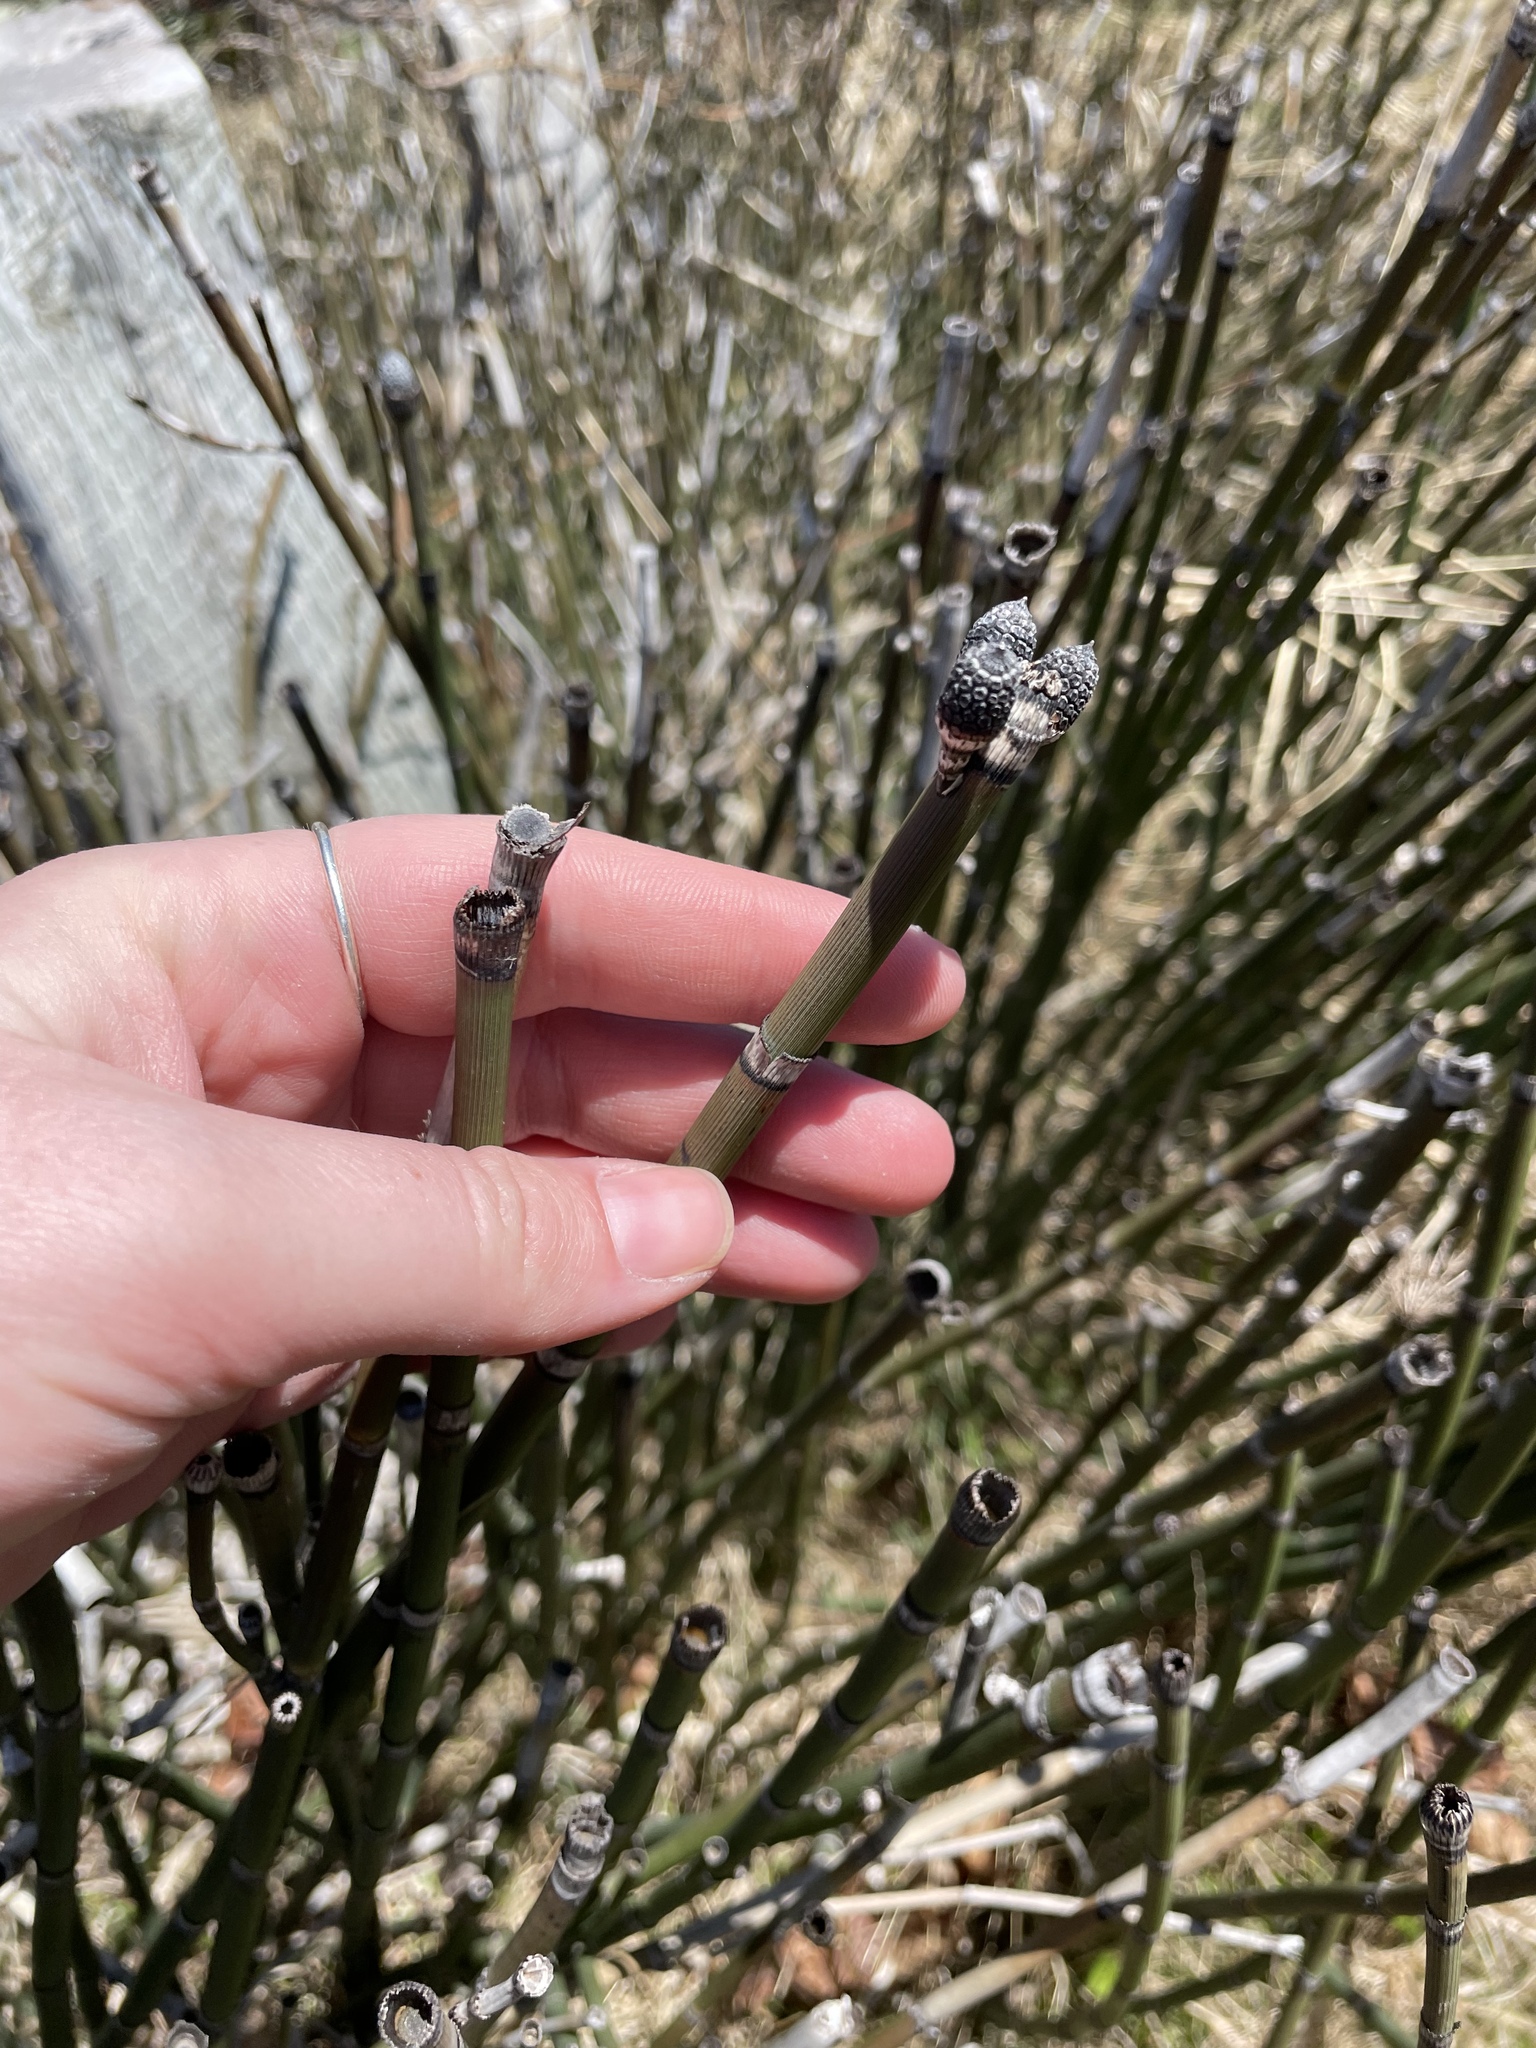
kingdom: Plantae
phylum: Tracheophyta
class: Polypodiopsida
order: Equisetales
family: Equisetaceae
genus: Equisetum
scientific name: Equisetum praealtum
